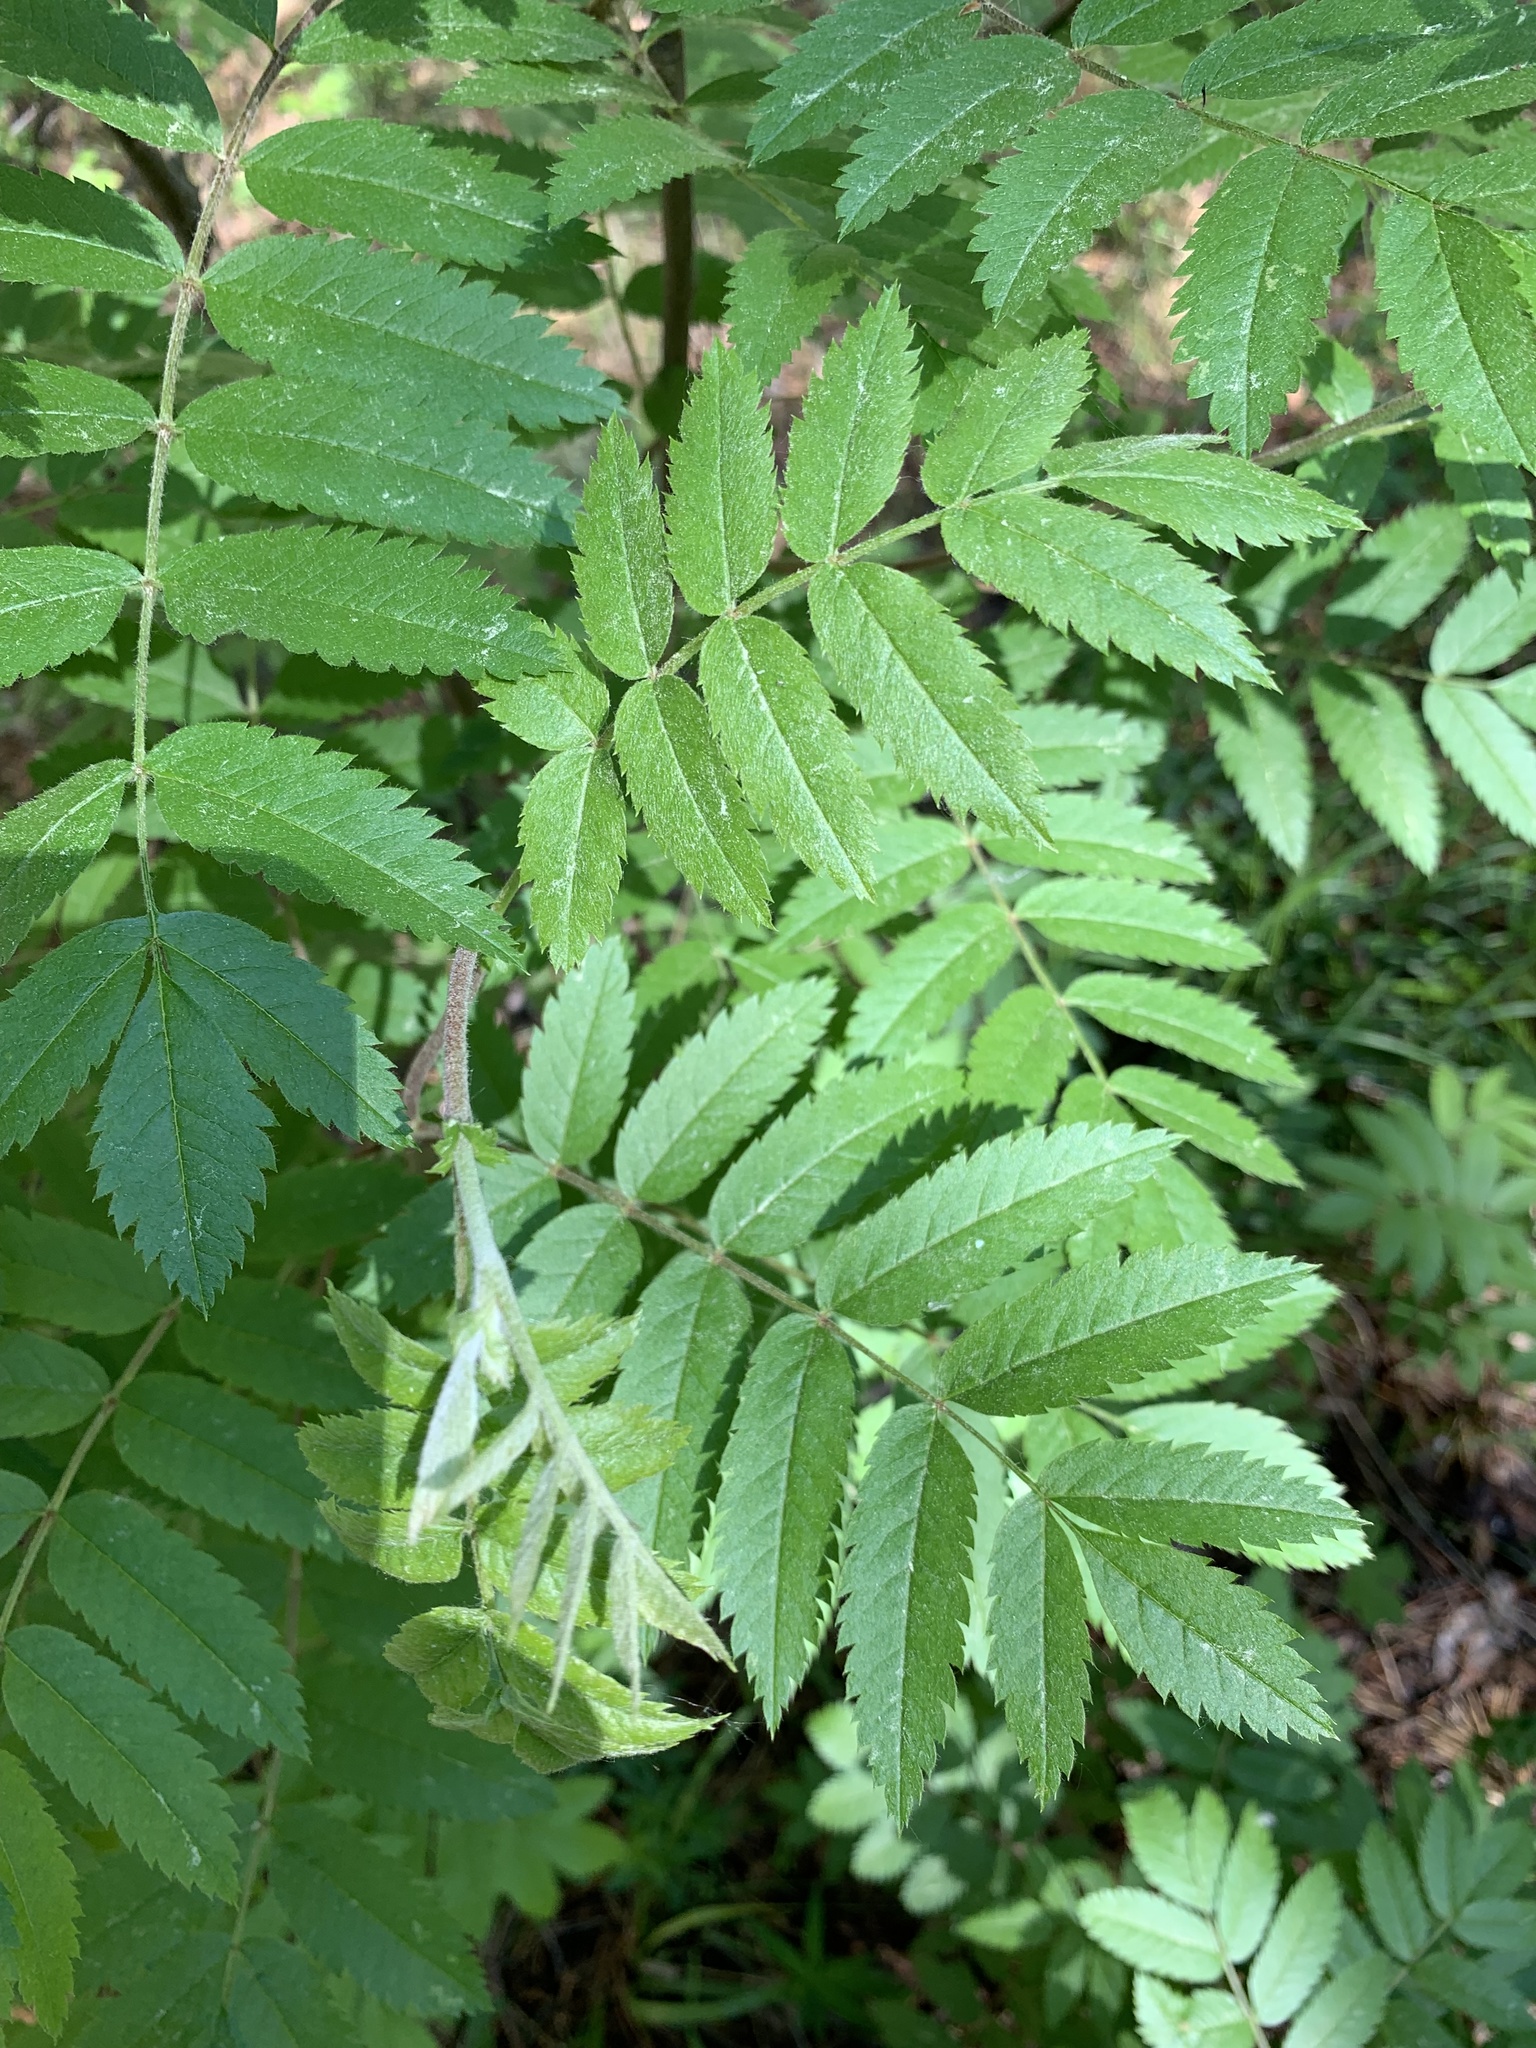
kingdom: Plantae
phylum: Tracheophyta
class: Magnoliopsida
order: Rosales
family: Rosaceae
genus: Sorbus
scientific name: Sorbus aucuparia
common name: Rowan
